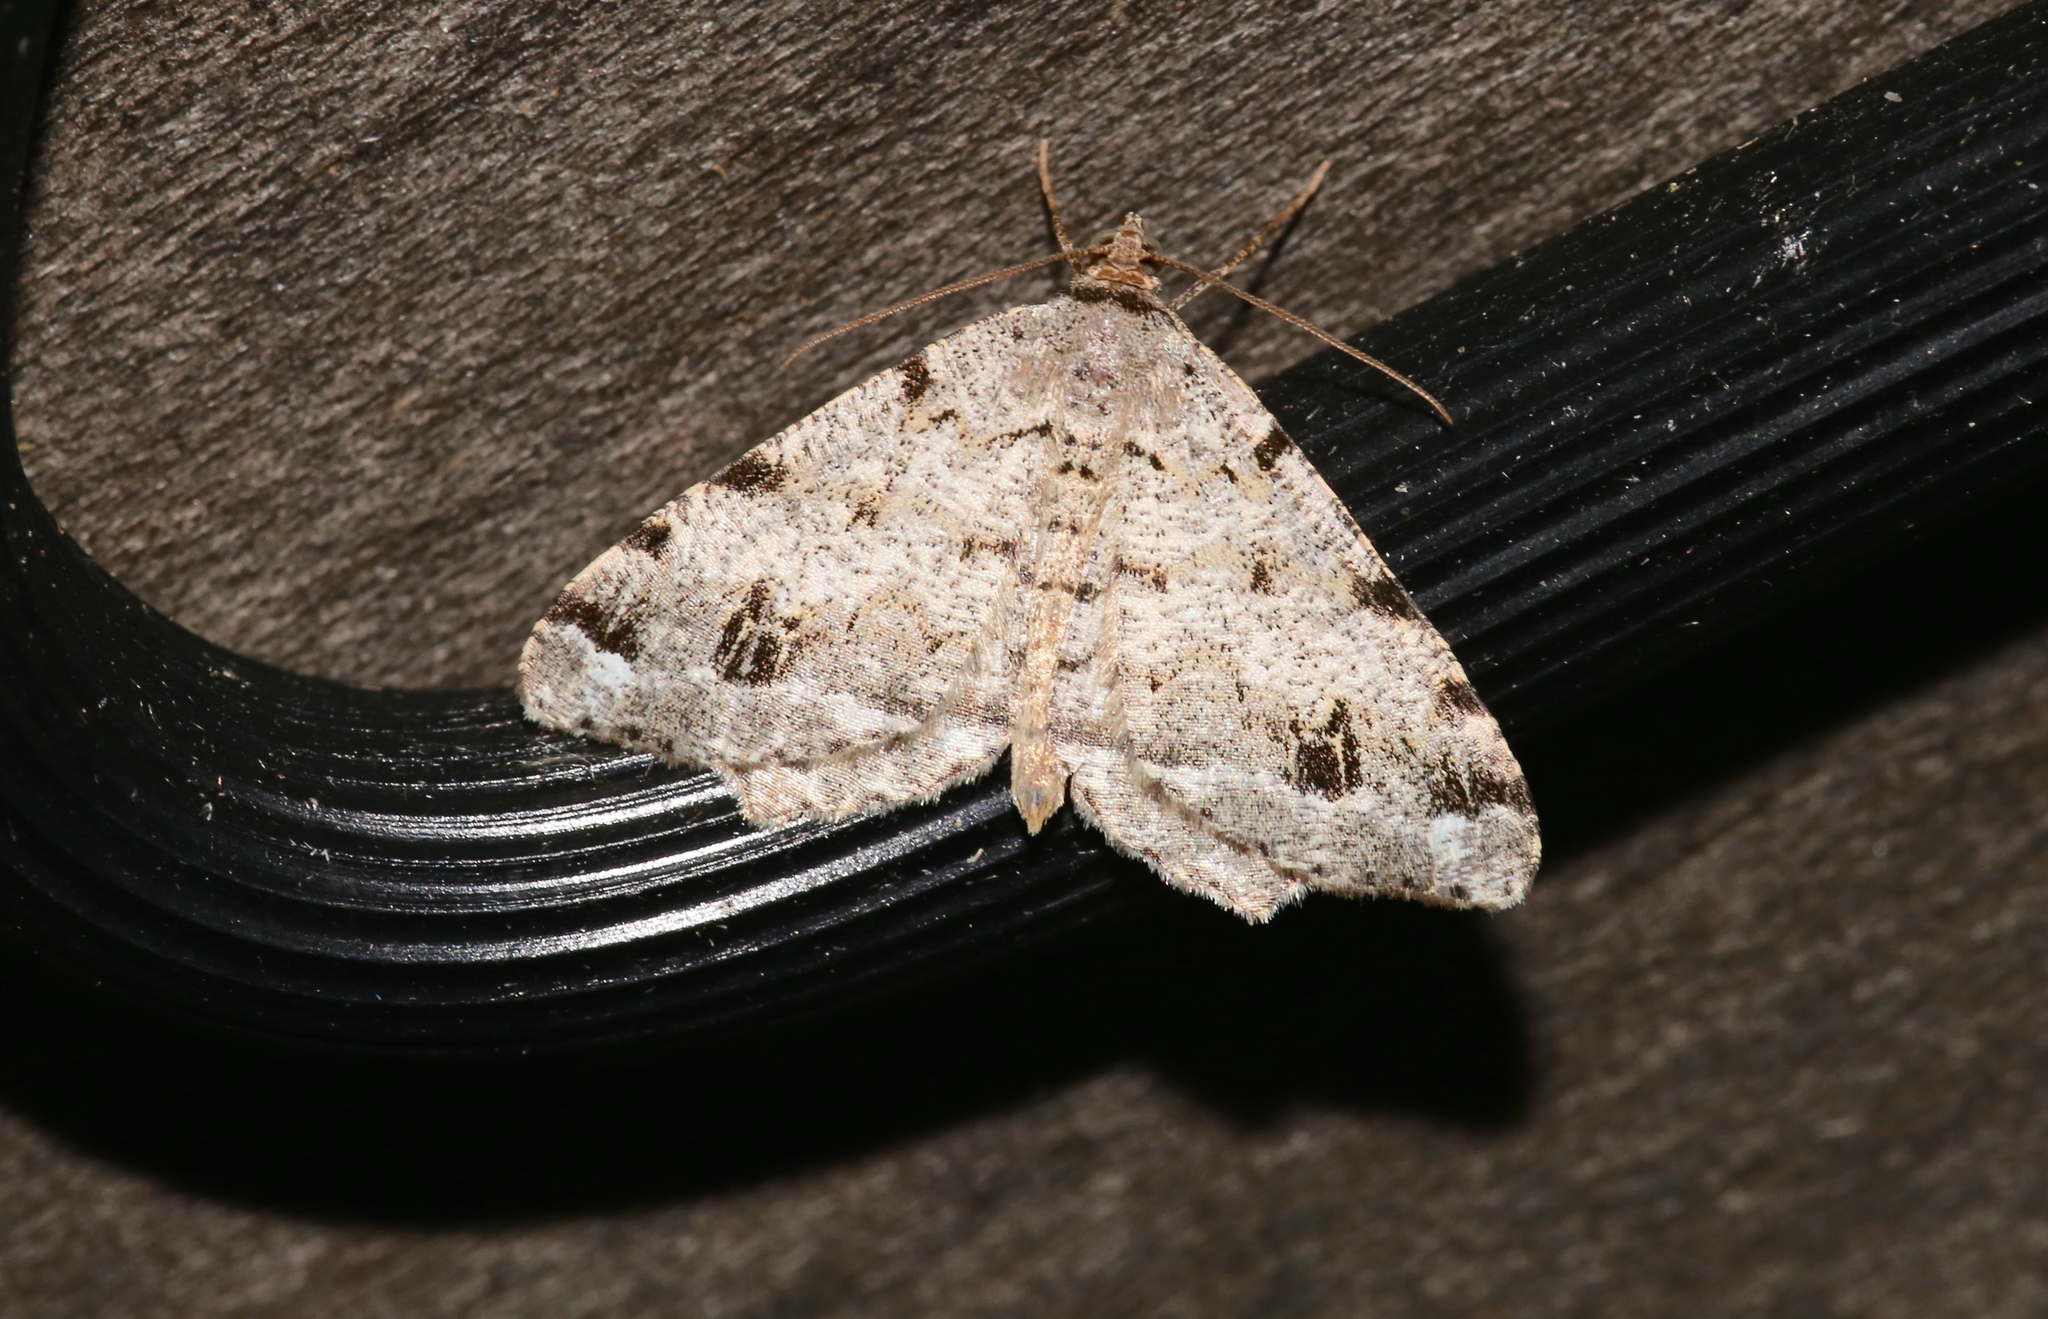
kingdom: Animalia
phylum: Arthropoda
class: Insecta
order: Lepidoptera
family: Geometridae
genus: Macaria
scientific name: Macaria pinistrobata
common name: White pine angle
